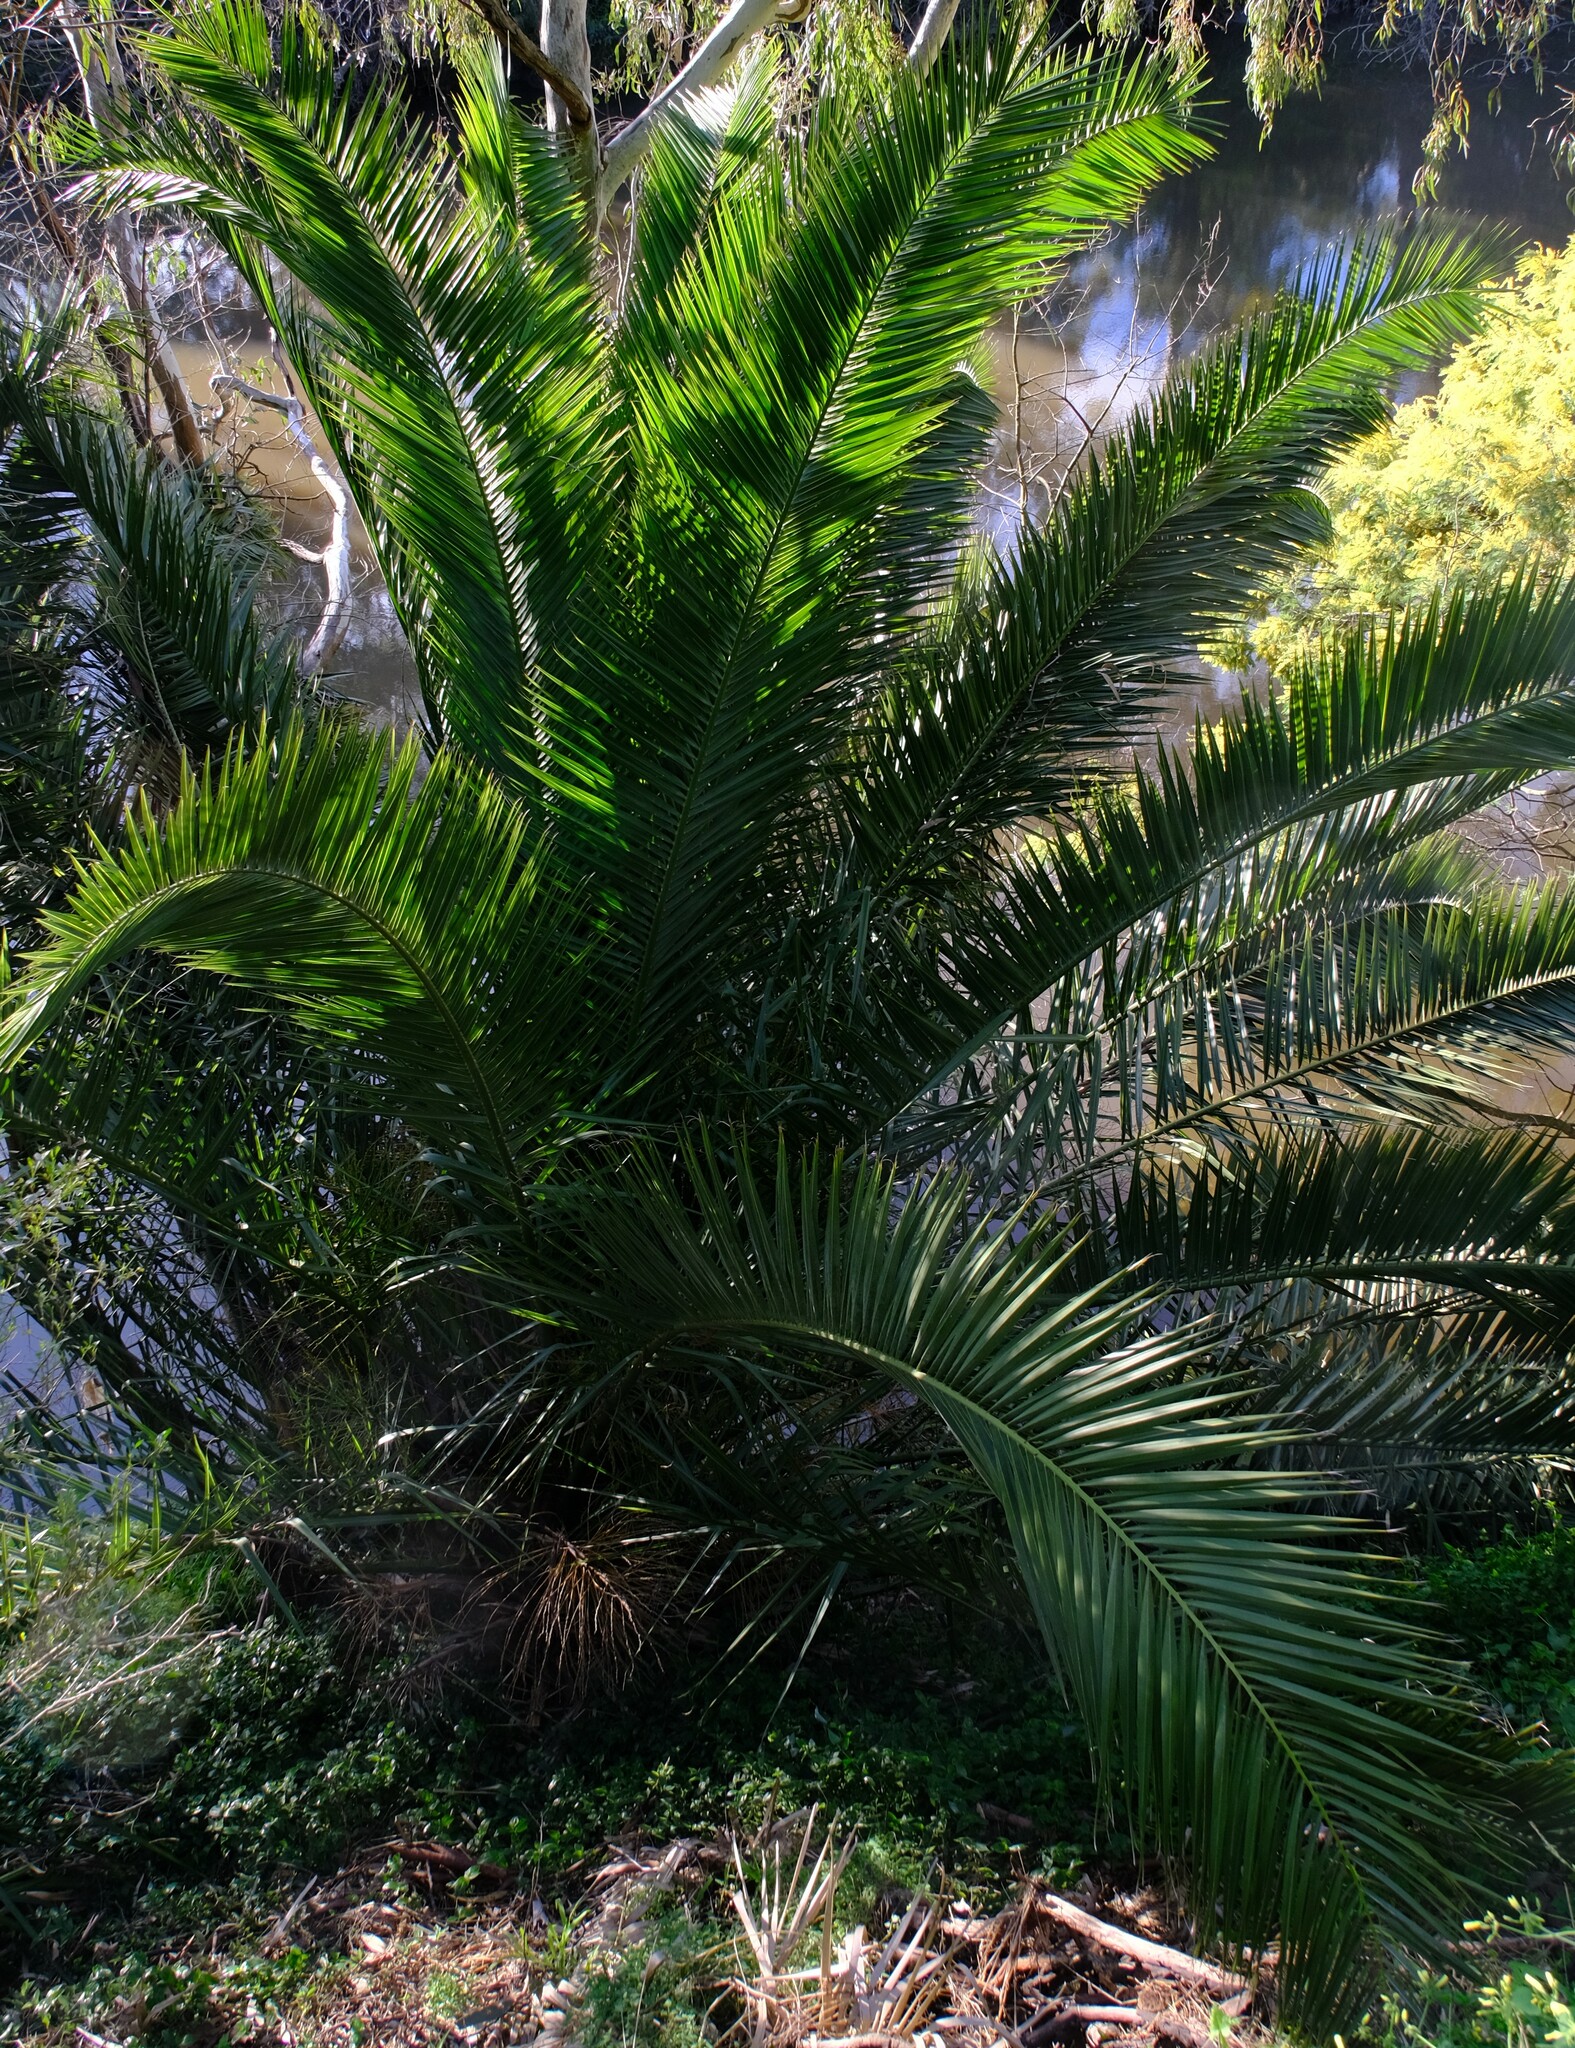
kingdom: Plantae
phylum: Tracheophyta
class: Liliopsida
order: Arecales
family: Arecaceae
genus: Phoenix
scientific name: Phoenix canariensis
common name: Canary island date palm
